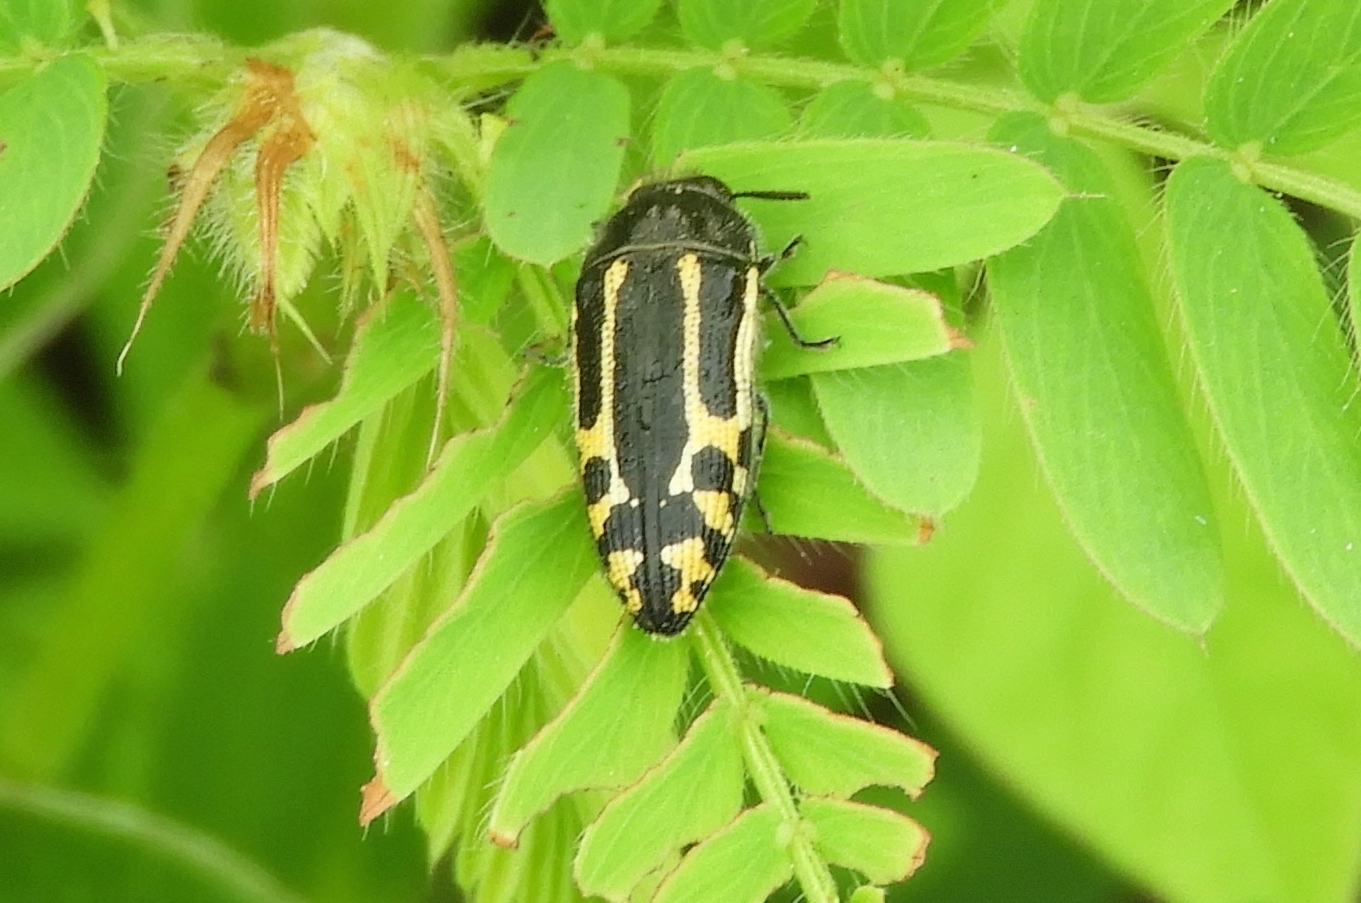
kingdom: Animalia
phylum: Arthropoda
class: Insecta
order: Coleoptera
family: Buprestidae
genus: Acmaeodera
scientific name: Acmaeodera scalaris
